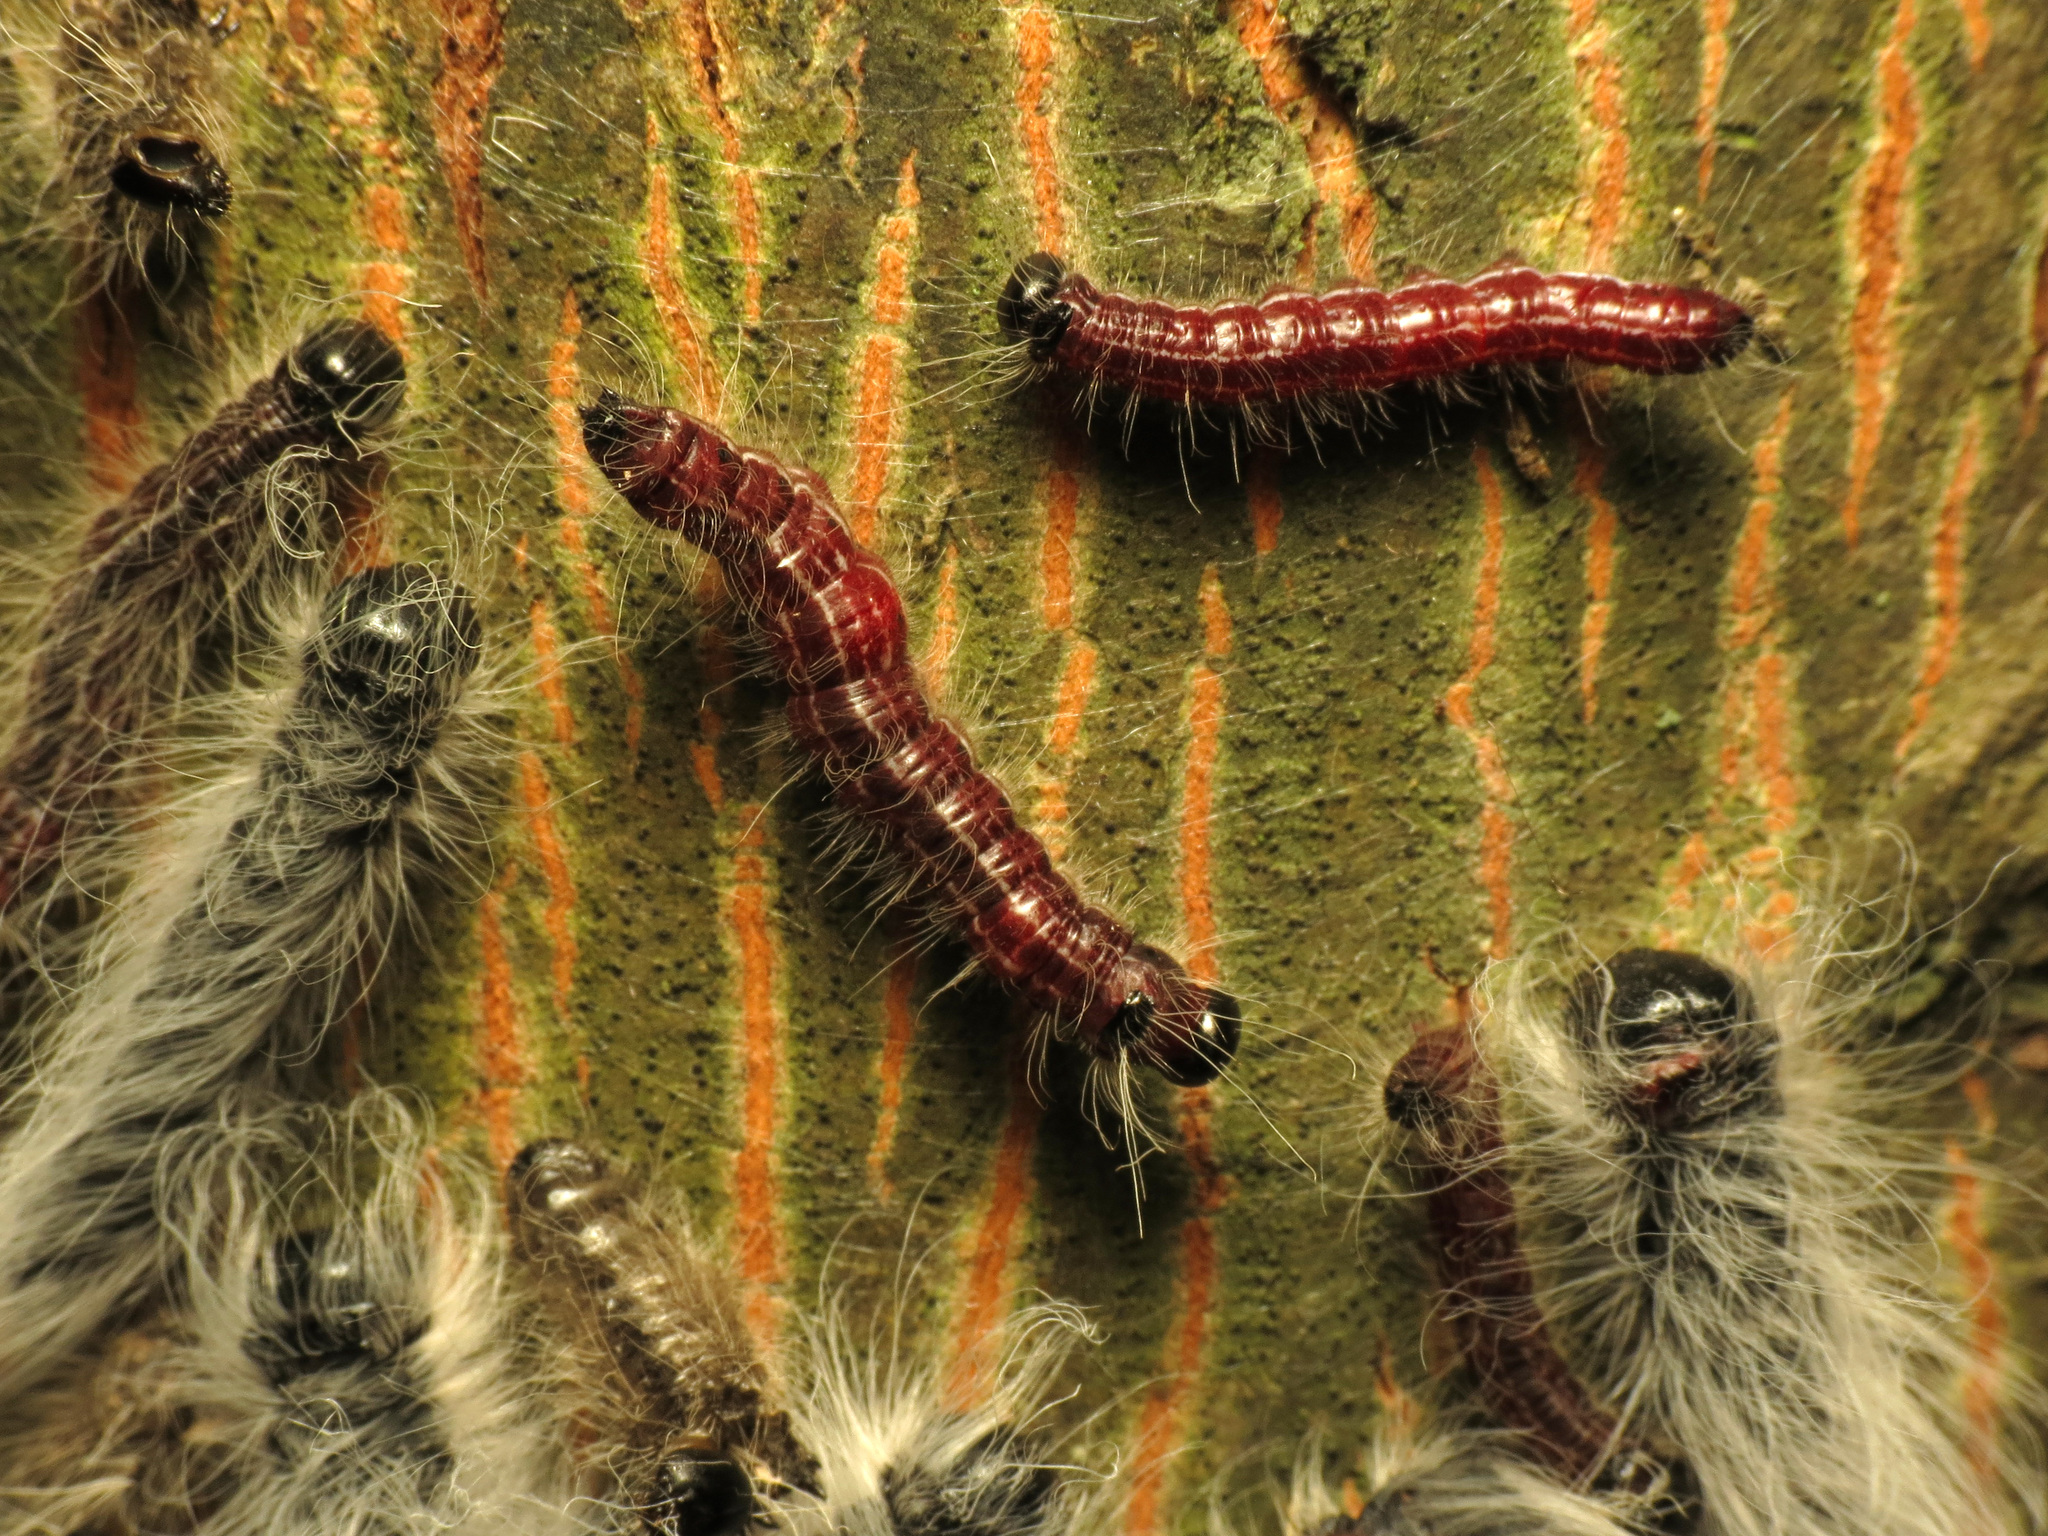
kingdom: Animalia
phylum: Arthropoda
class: Insecta
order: Lepidoptera
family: Notodontidae
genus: Datana
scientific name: Datana integerrima
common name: Walnut caterpillar
